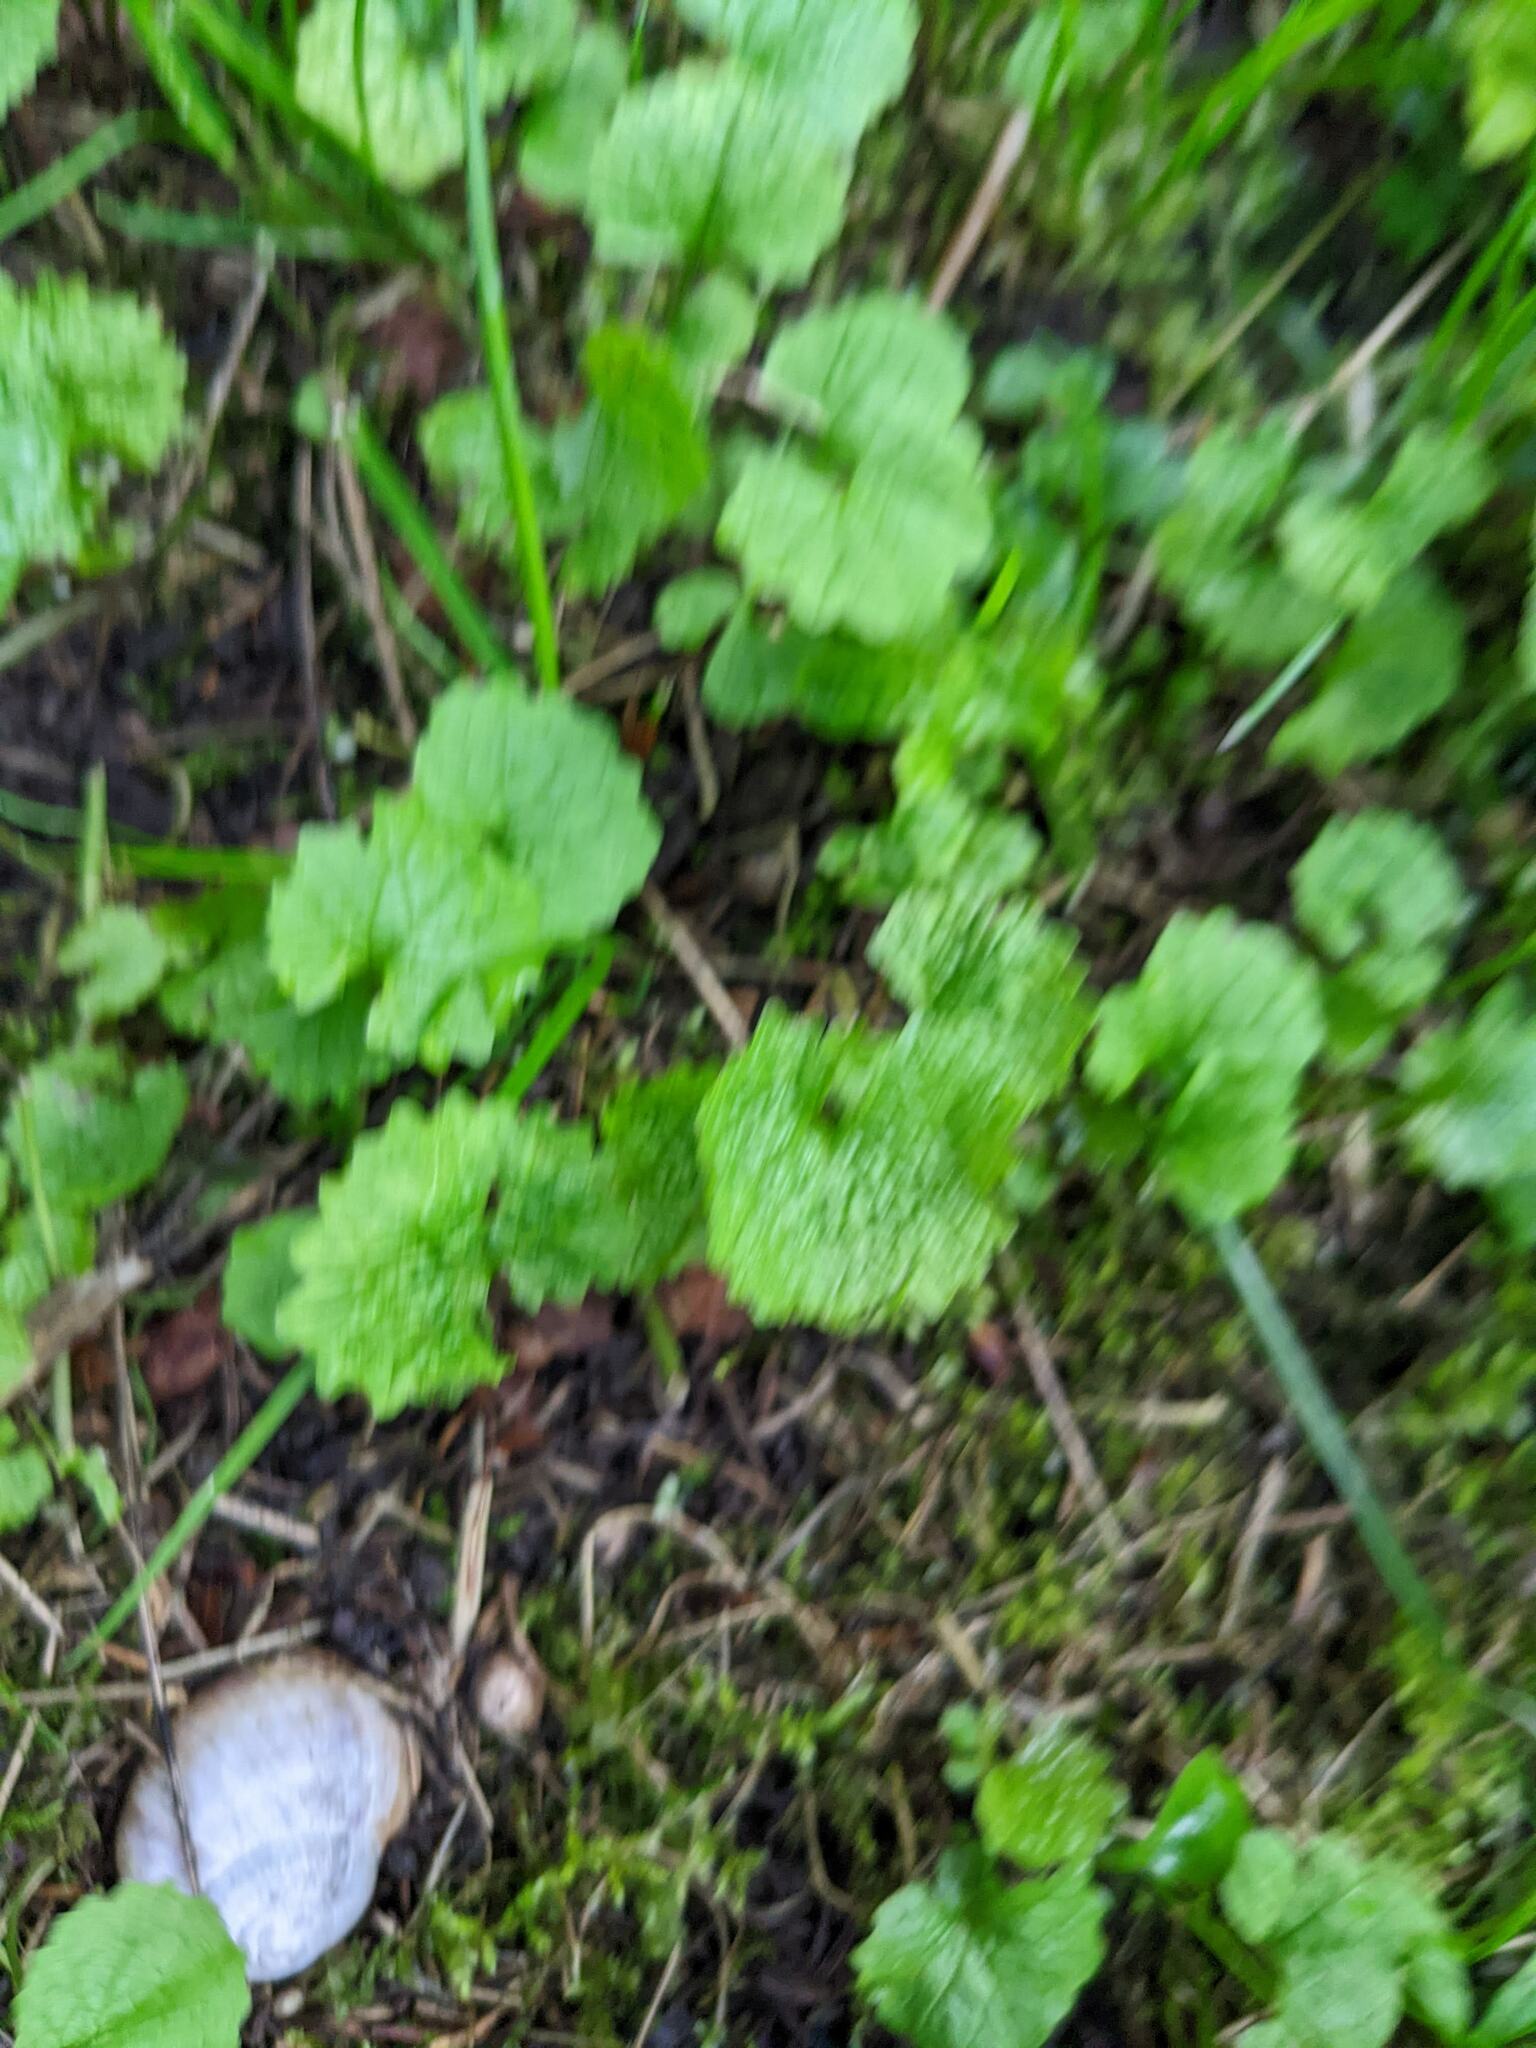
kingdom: Plantae
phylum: Tracheophyta
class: Magnoliopsida
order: Brassicales
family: Brassicaceae
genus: Alliaria
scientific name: Alliaria petiolata
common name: Garlic mustard
